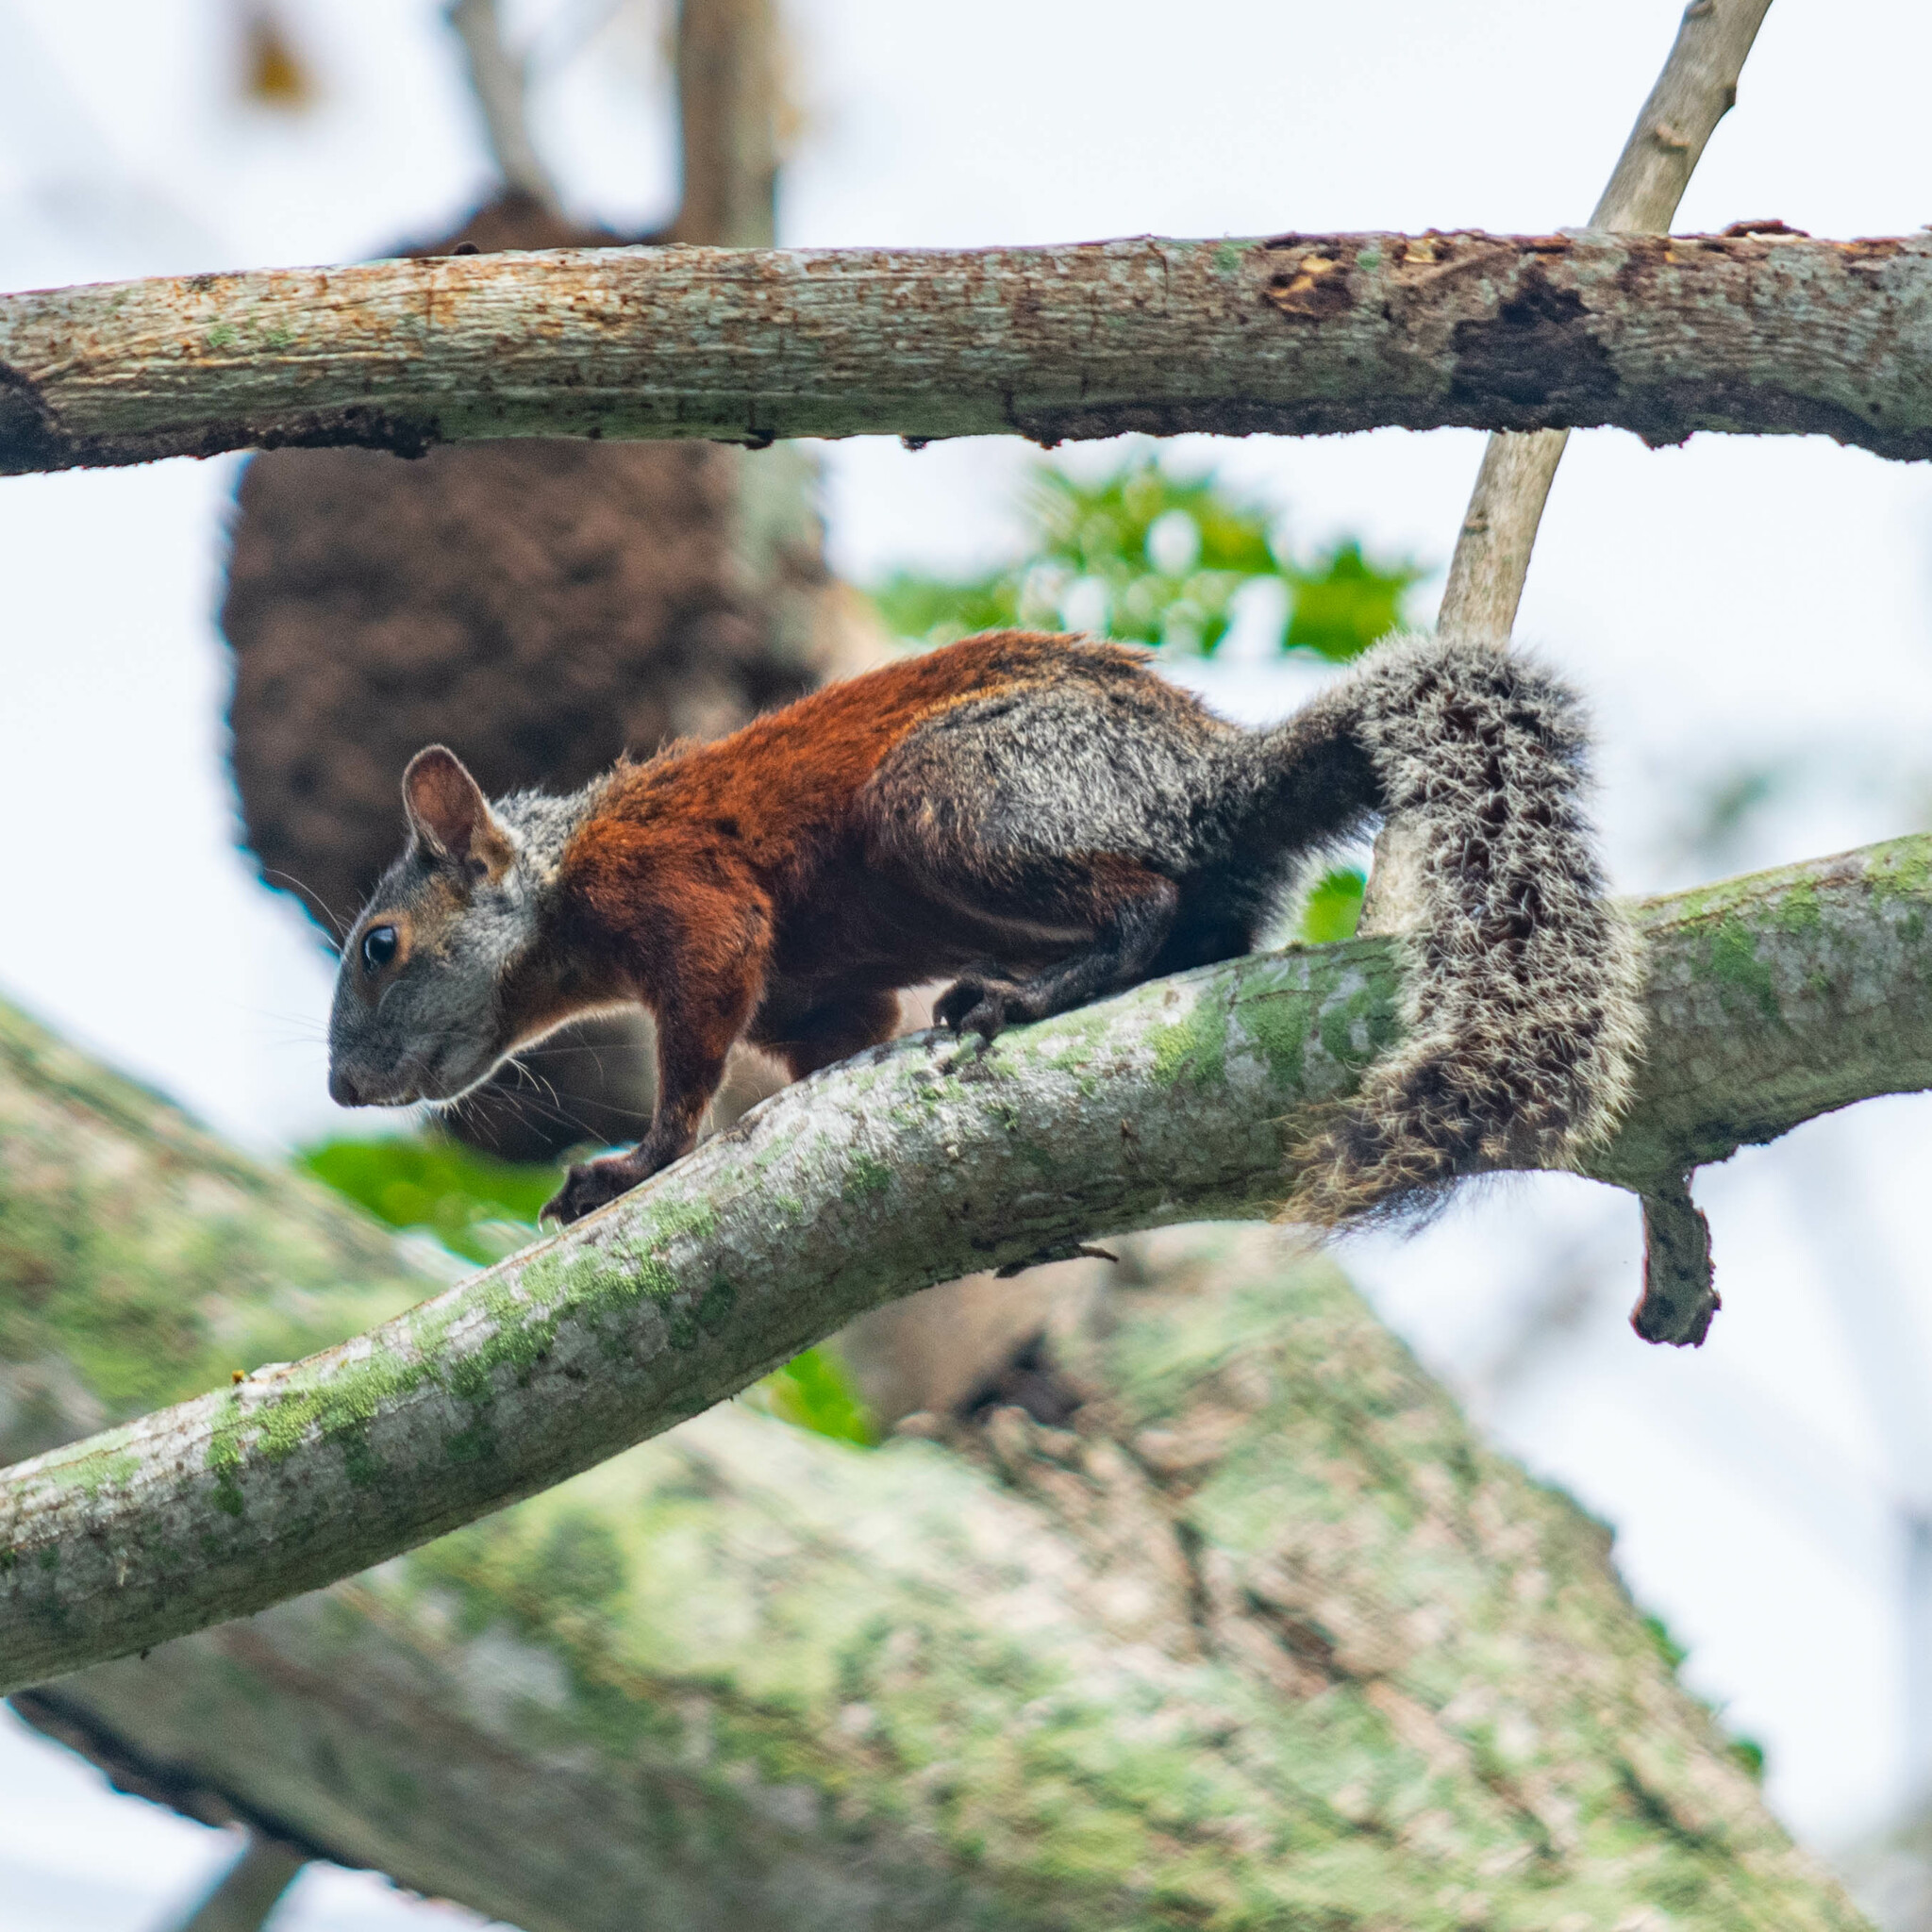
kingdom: Animalia
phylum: Chordata
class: Mammalia
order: Rodentia
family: Sciuridae
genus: Sciurus
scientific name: Sciurus aureogaster
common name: Red-bellied squirrel
